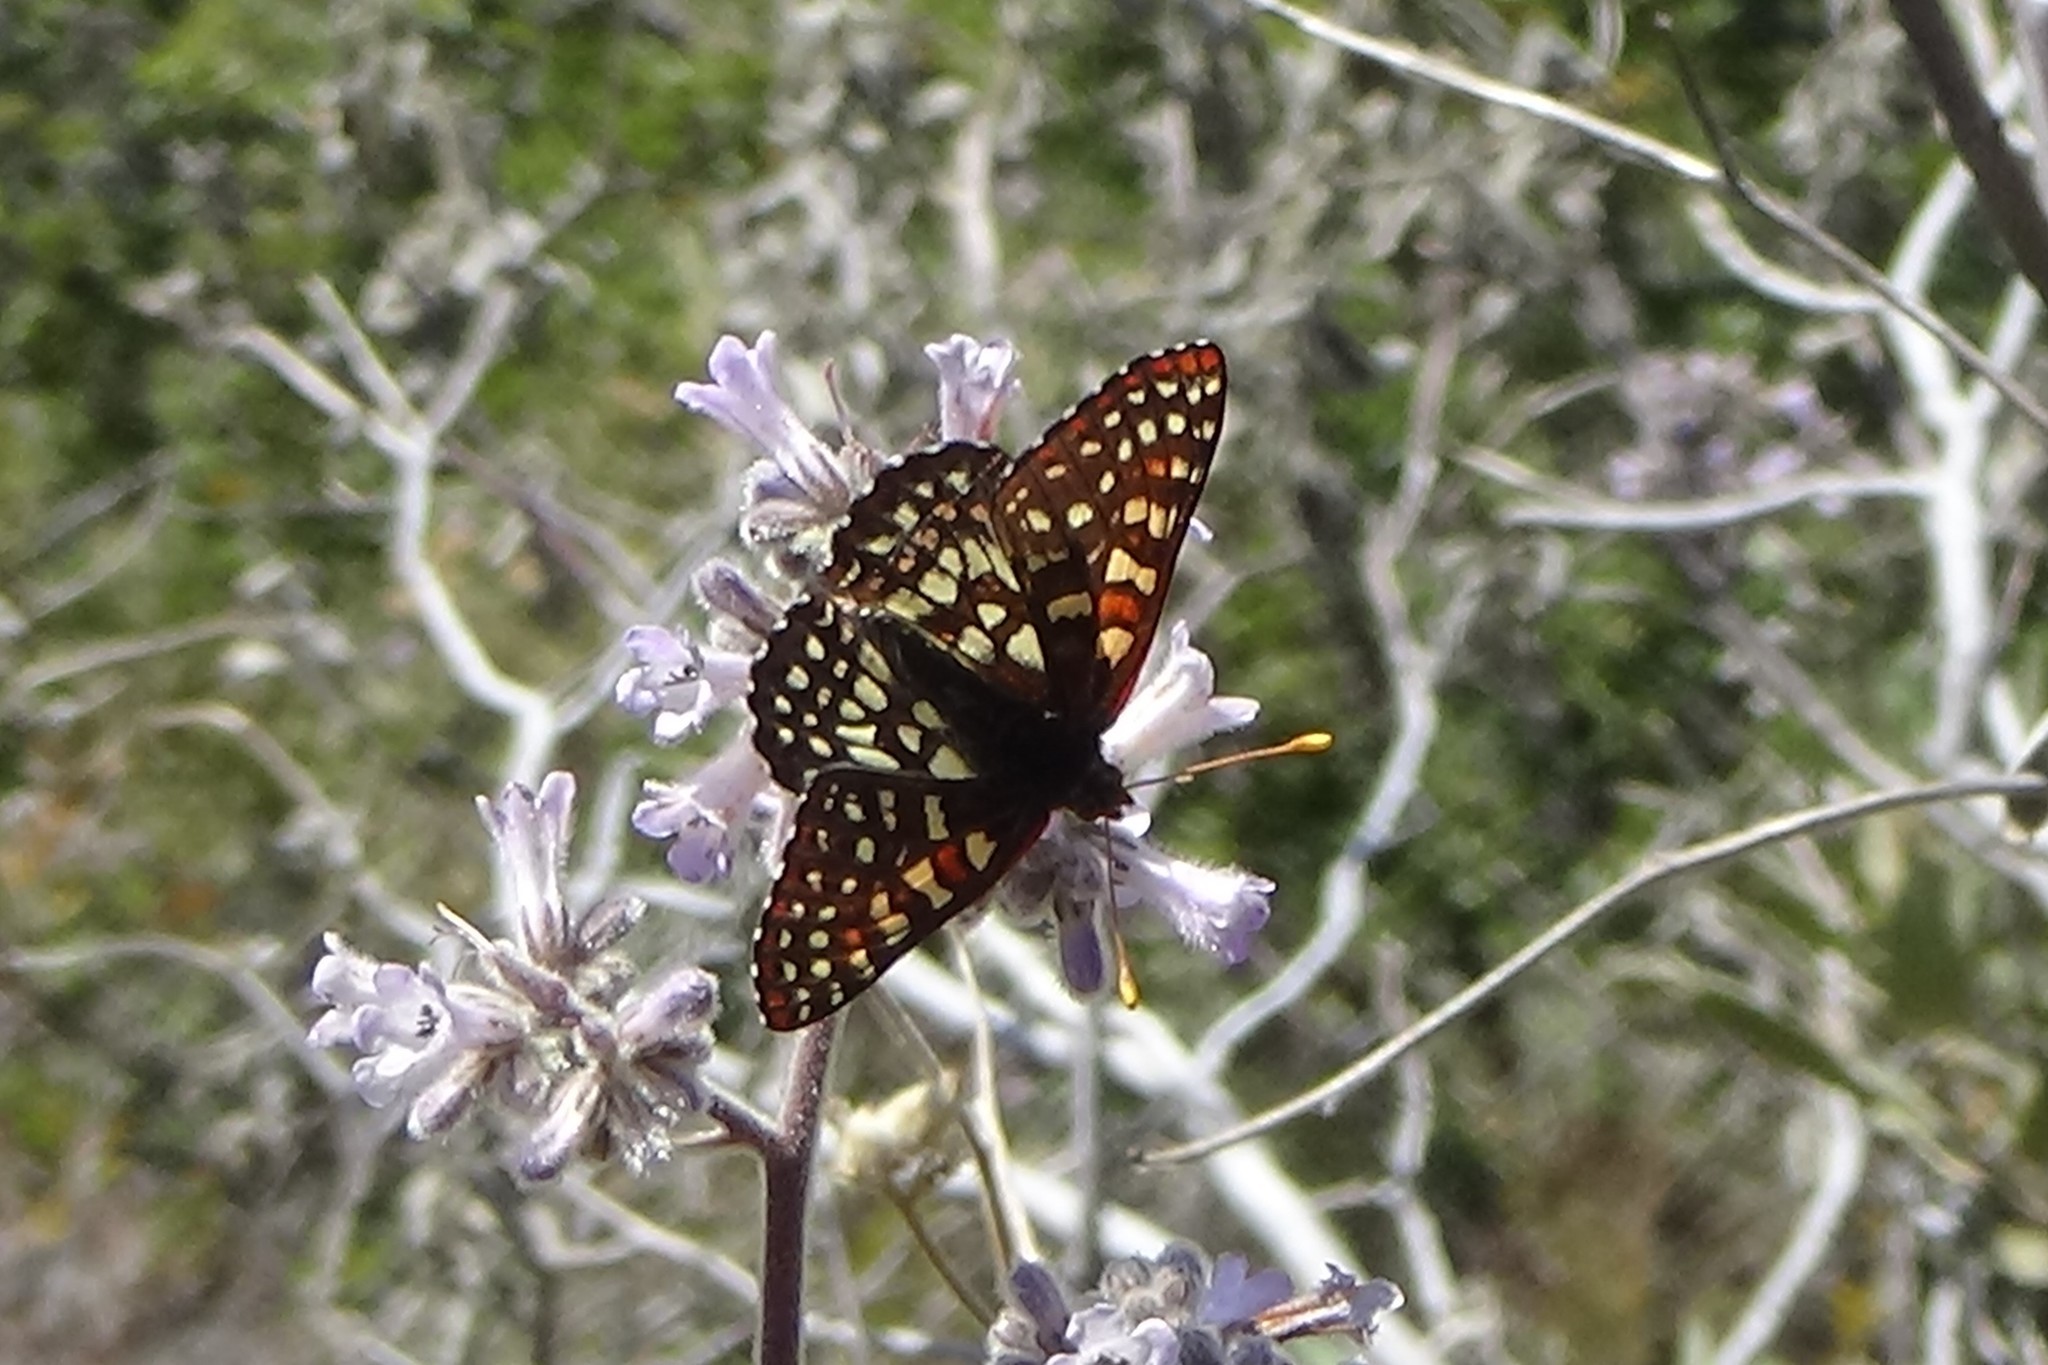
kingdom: Animalia
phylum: Arthropoda
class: Insecta
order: Lepidoptera
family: Nymphalidae
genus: Occidryas
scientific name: Occidryas chalcedona
